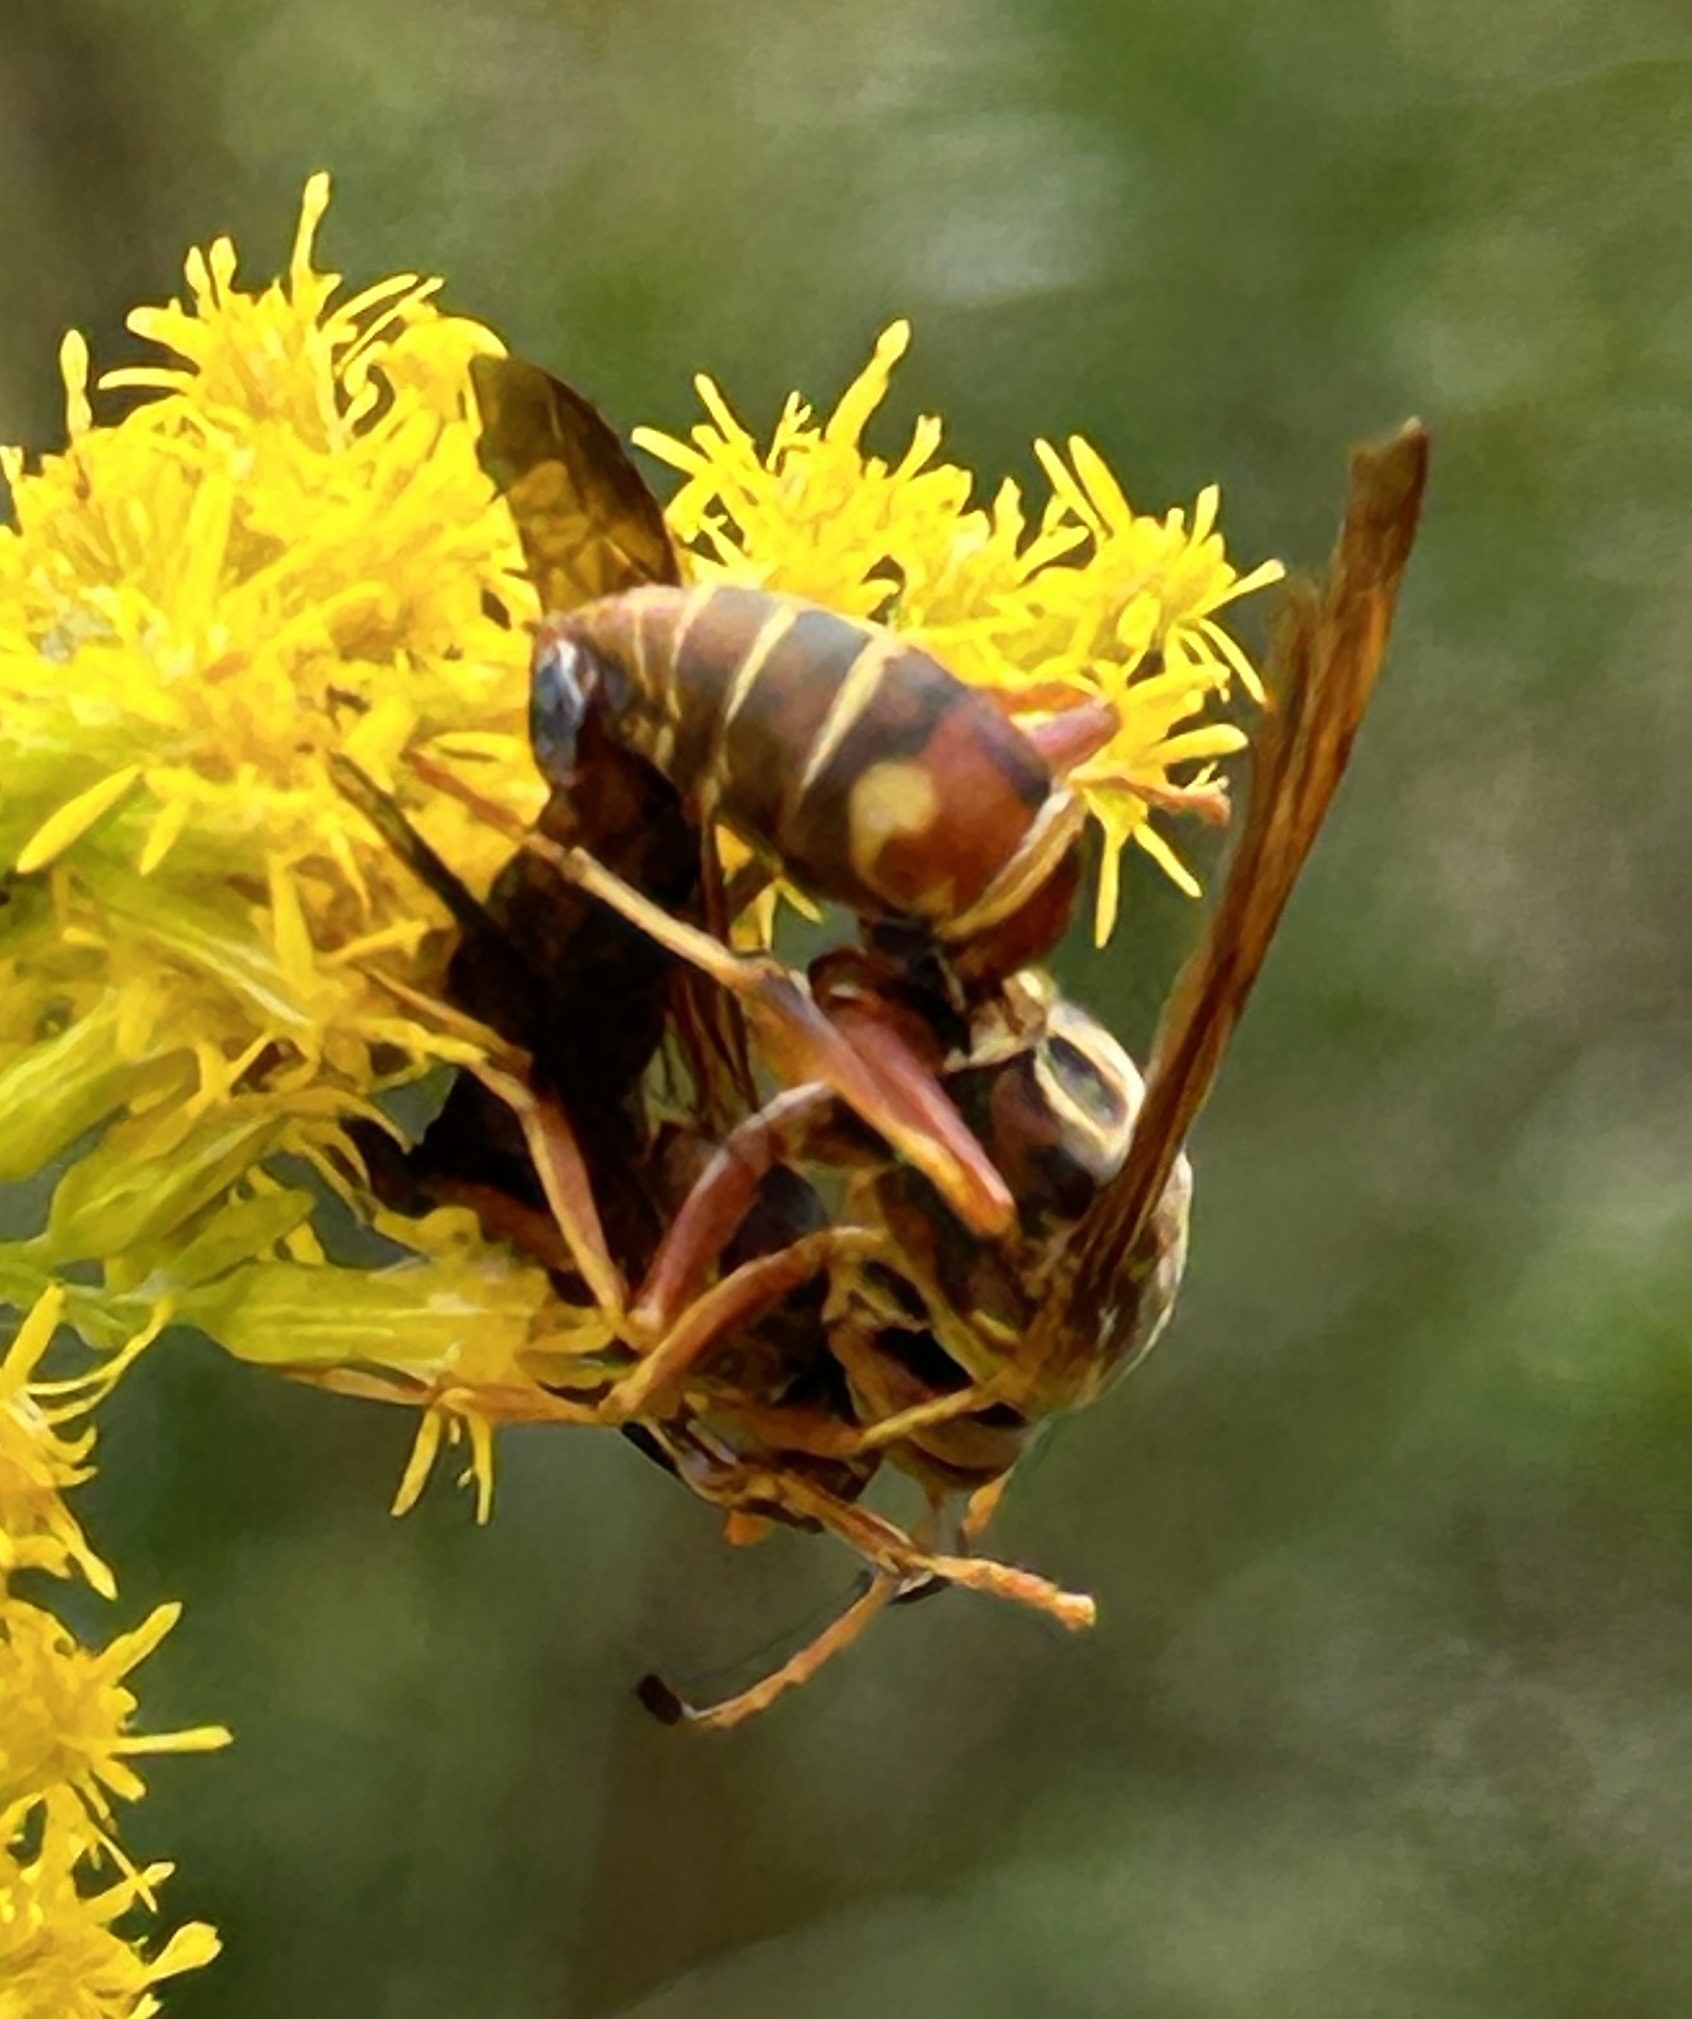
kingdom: Animalia
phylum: Arthropoda
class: Insecta
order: Hymenoptera
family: Eumenidae
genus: Polistes
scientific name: Polistes fuscatus
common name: Dark paper wasp
